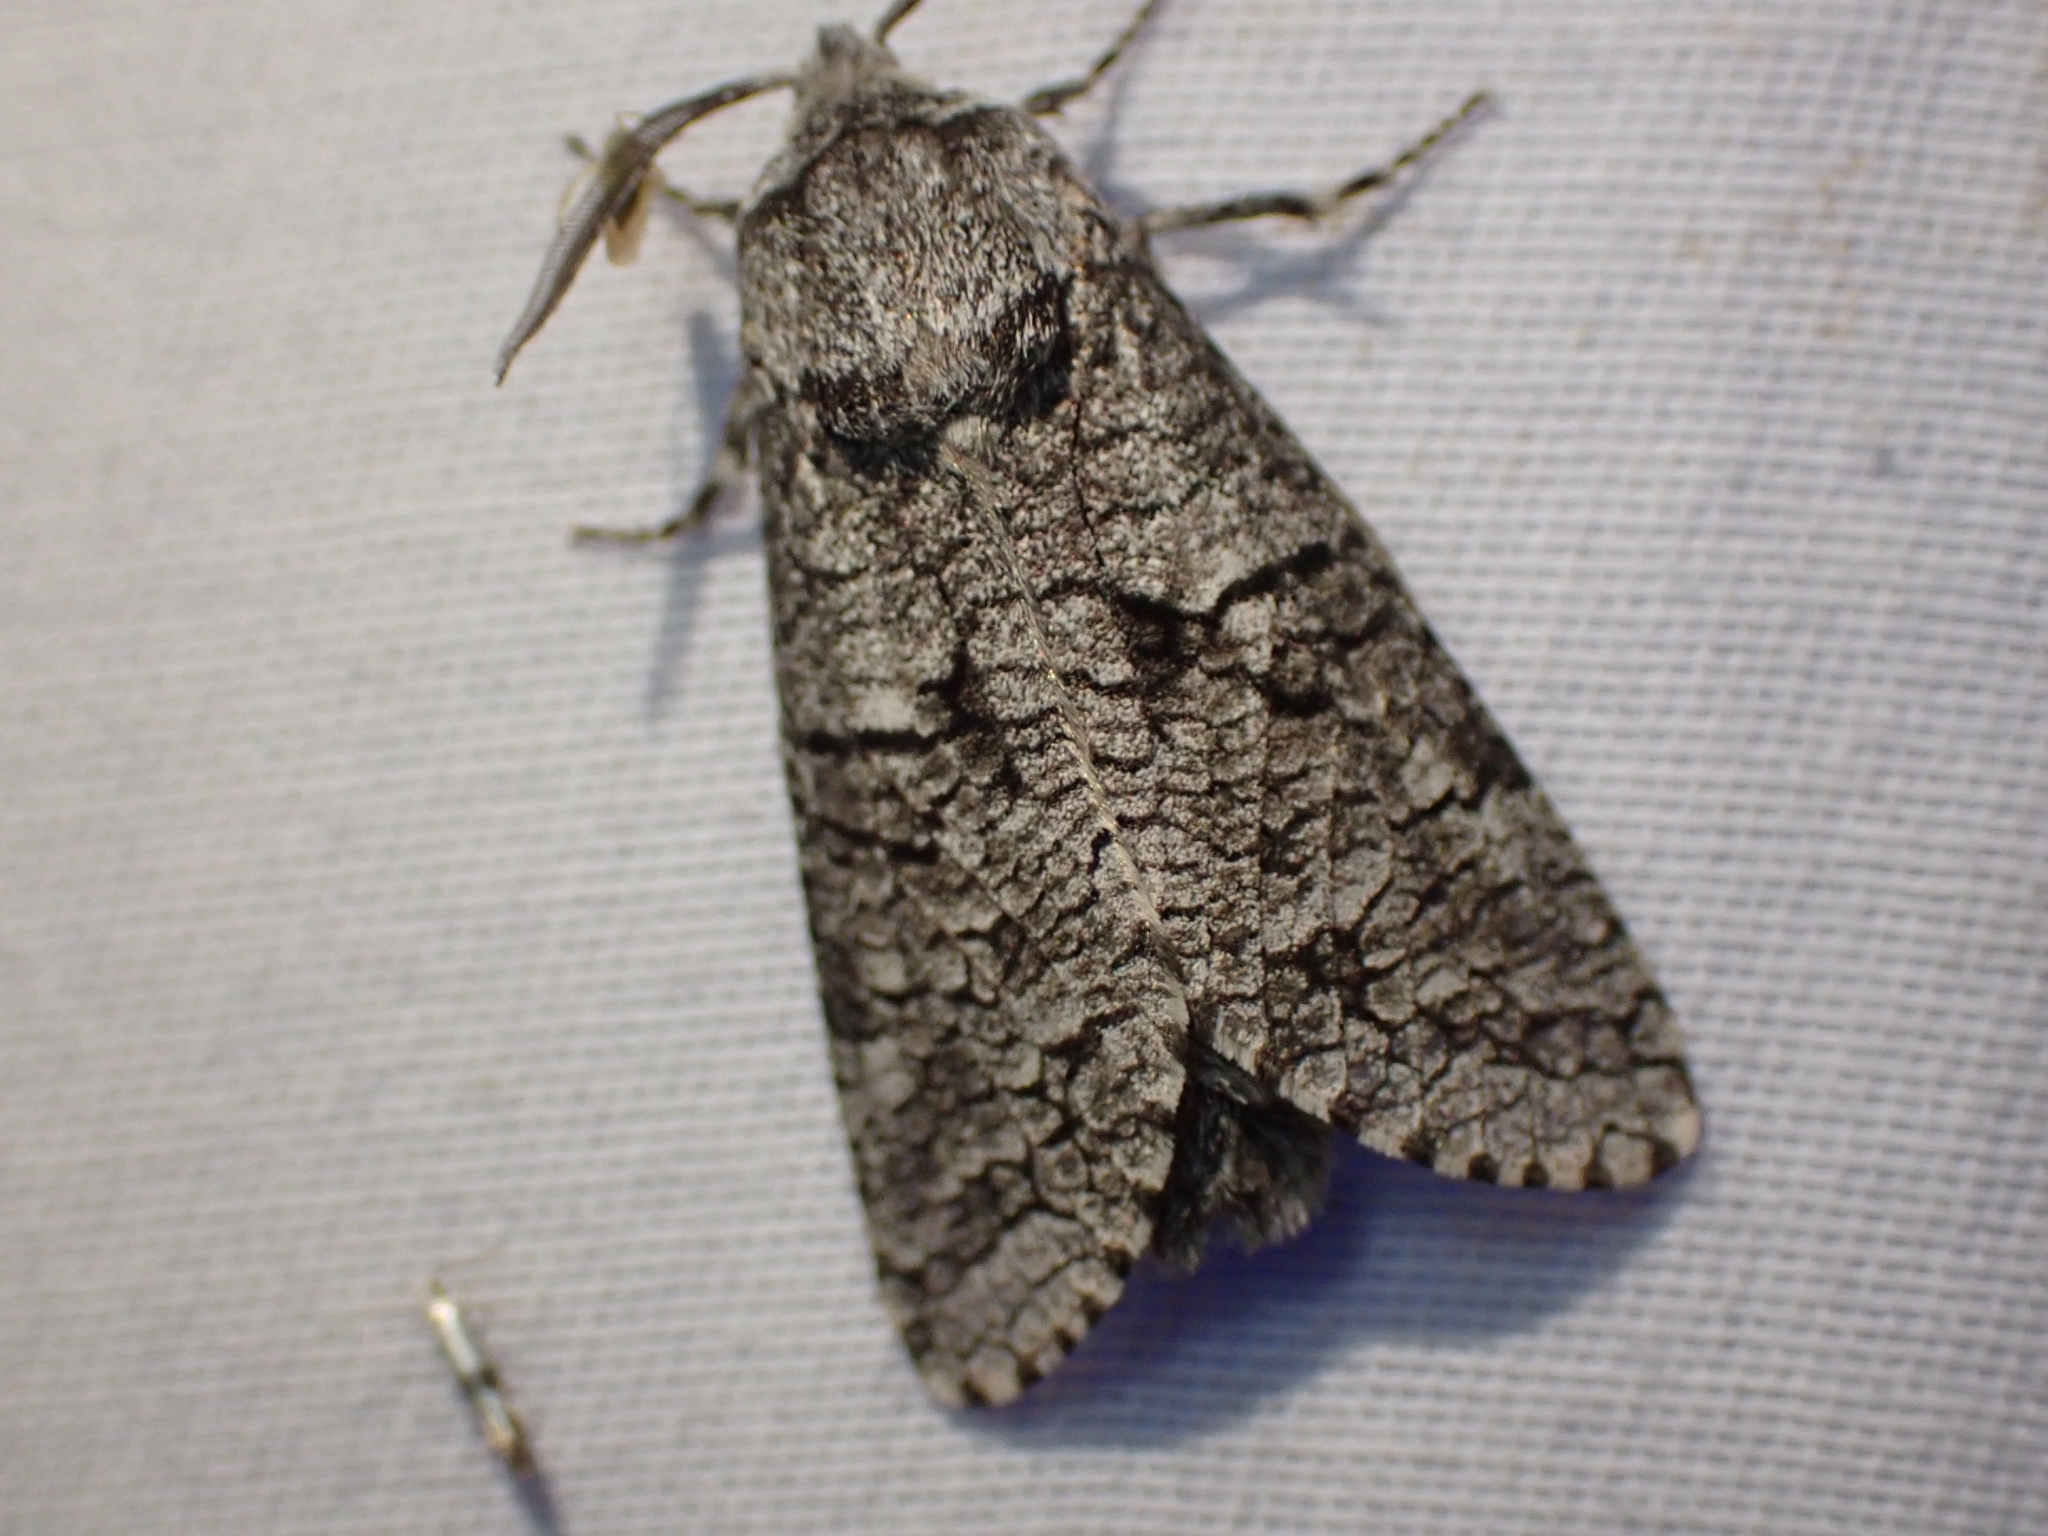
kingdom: Animalia
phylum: Arthropoda
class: Insecta
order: Lepidoptera
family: Cossidae
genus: Acossus
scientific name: Acossus populi
